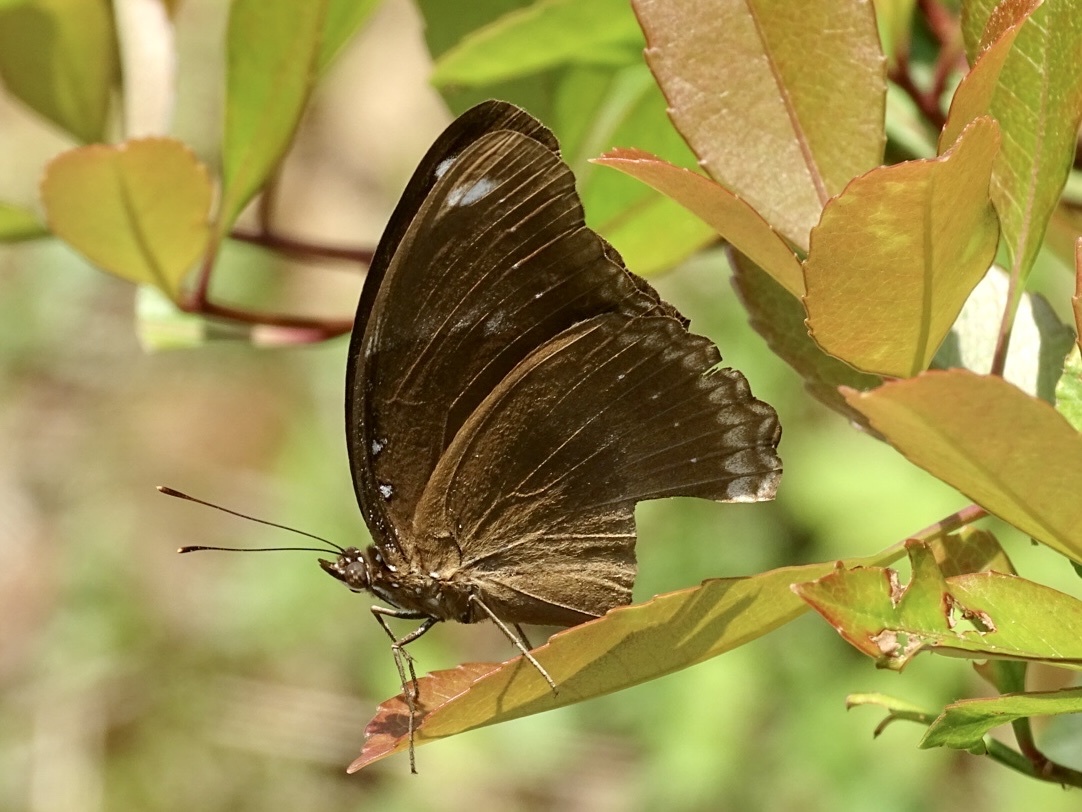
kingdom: Animalia
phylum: Arthropoda
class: Insecta
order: Lepidoptera
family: Nymphalidae
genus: Hypolimnas
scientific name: Hypolimnas bolina
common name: Great eggfly
